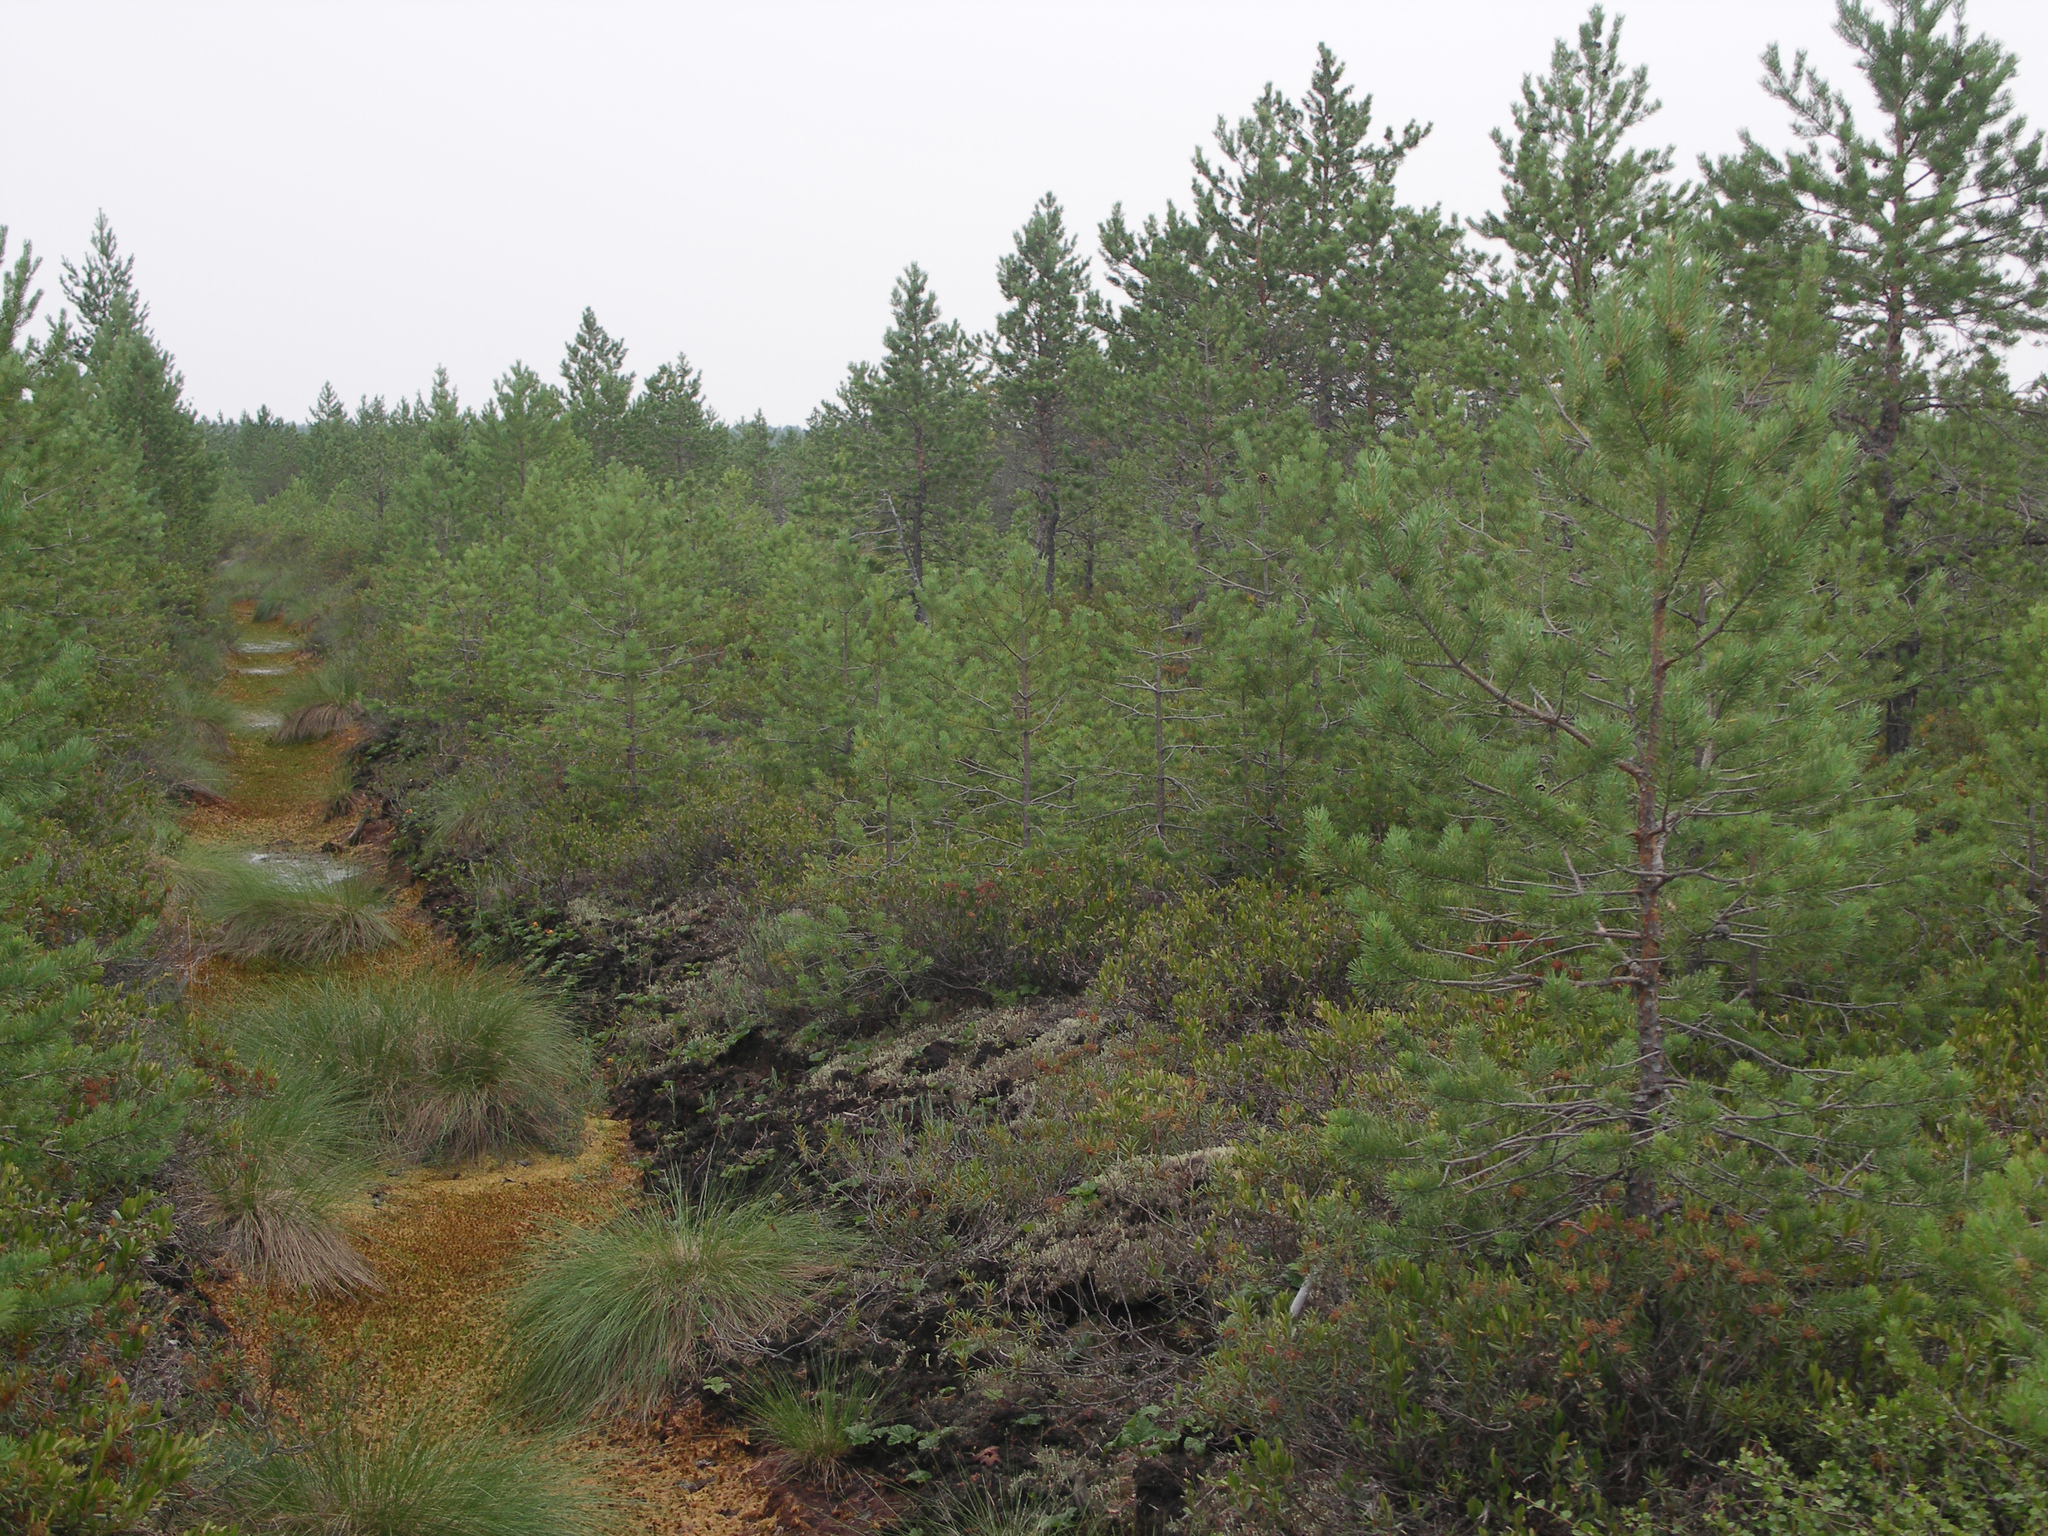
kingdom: Plantae
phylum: Tracheophyta
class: Pinopsida
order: Pinales
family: Pinaceae
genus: Pinus
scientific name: Pinus sylvestris
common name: Scots pine
